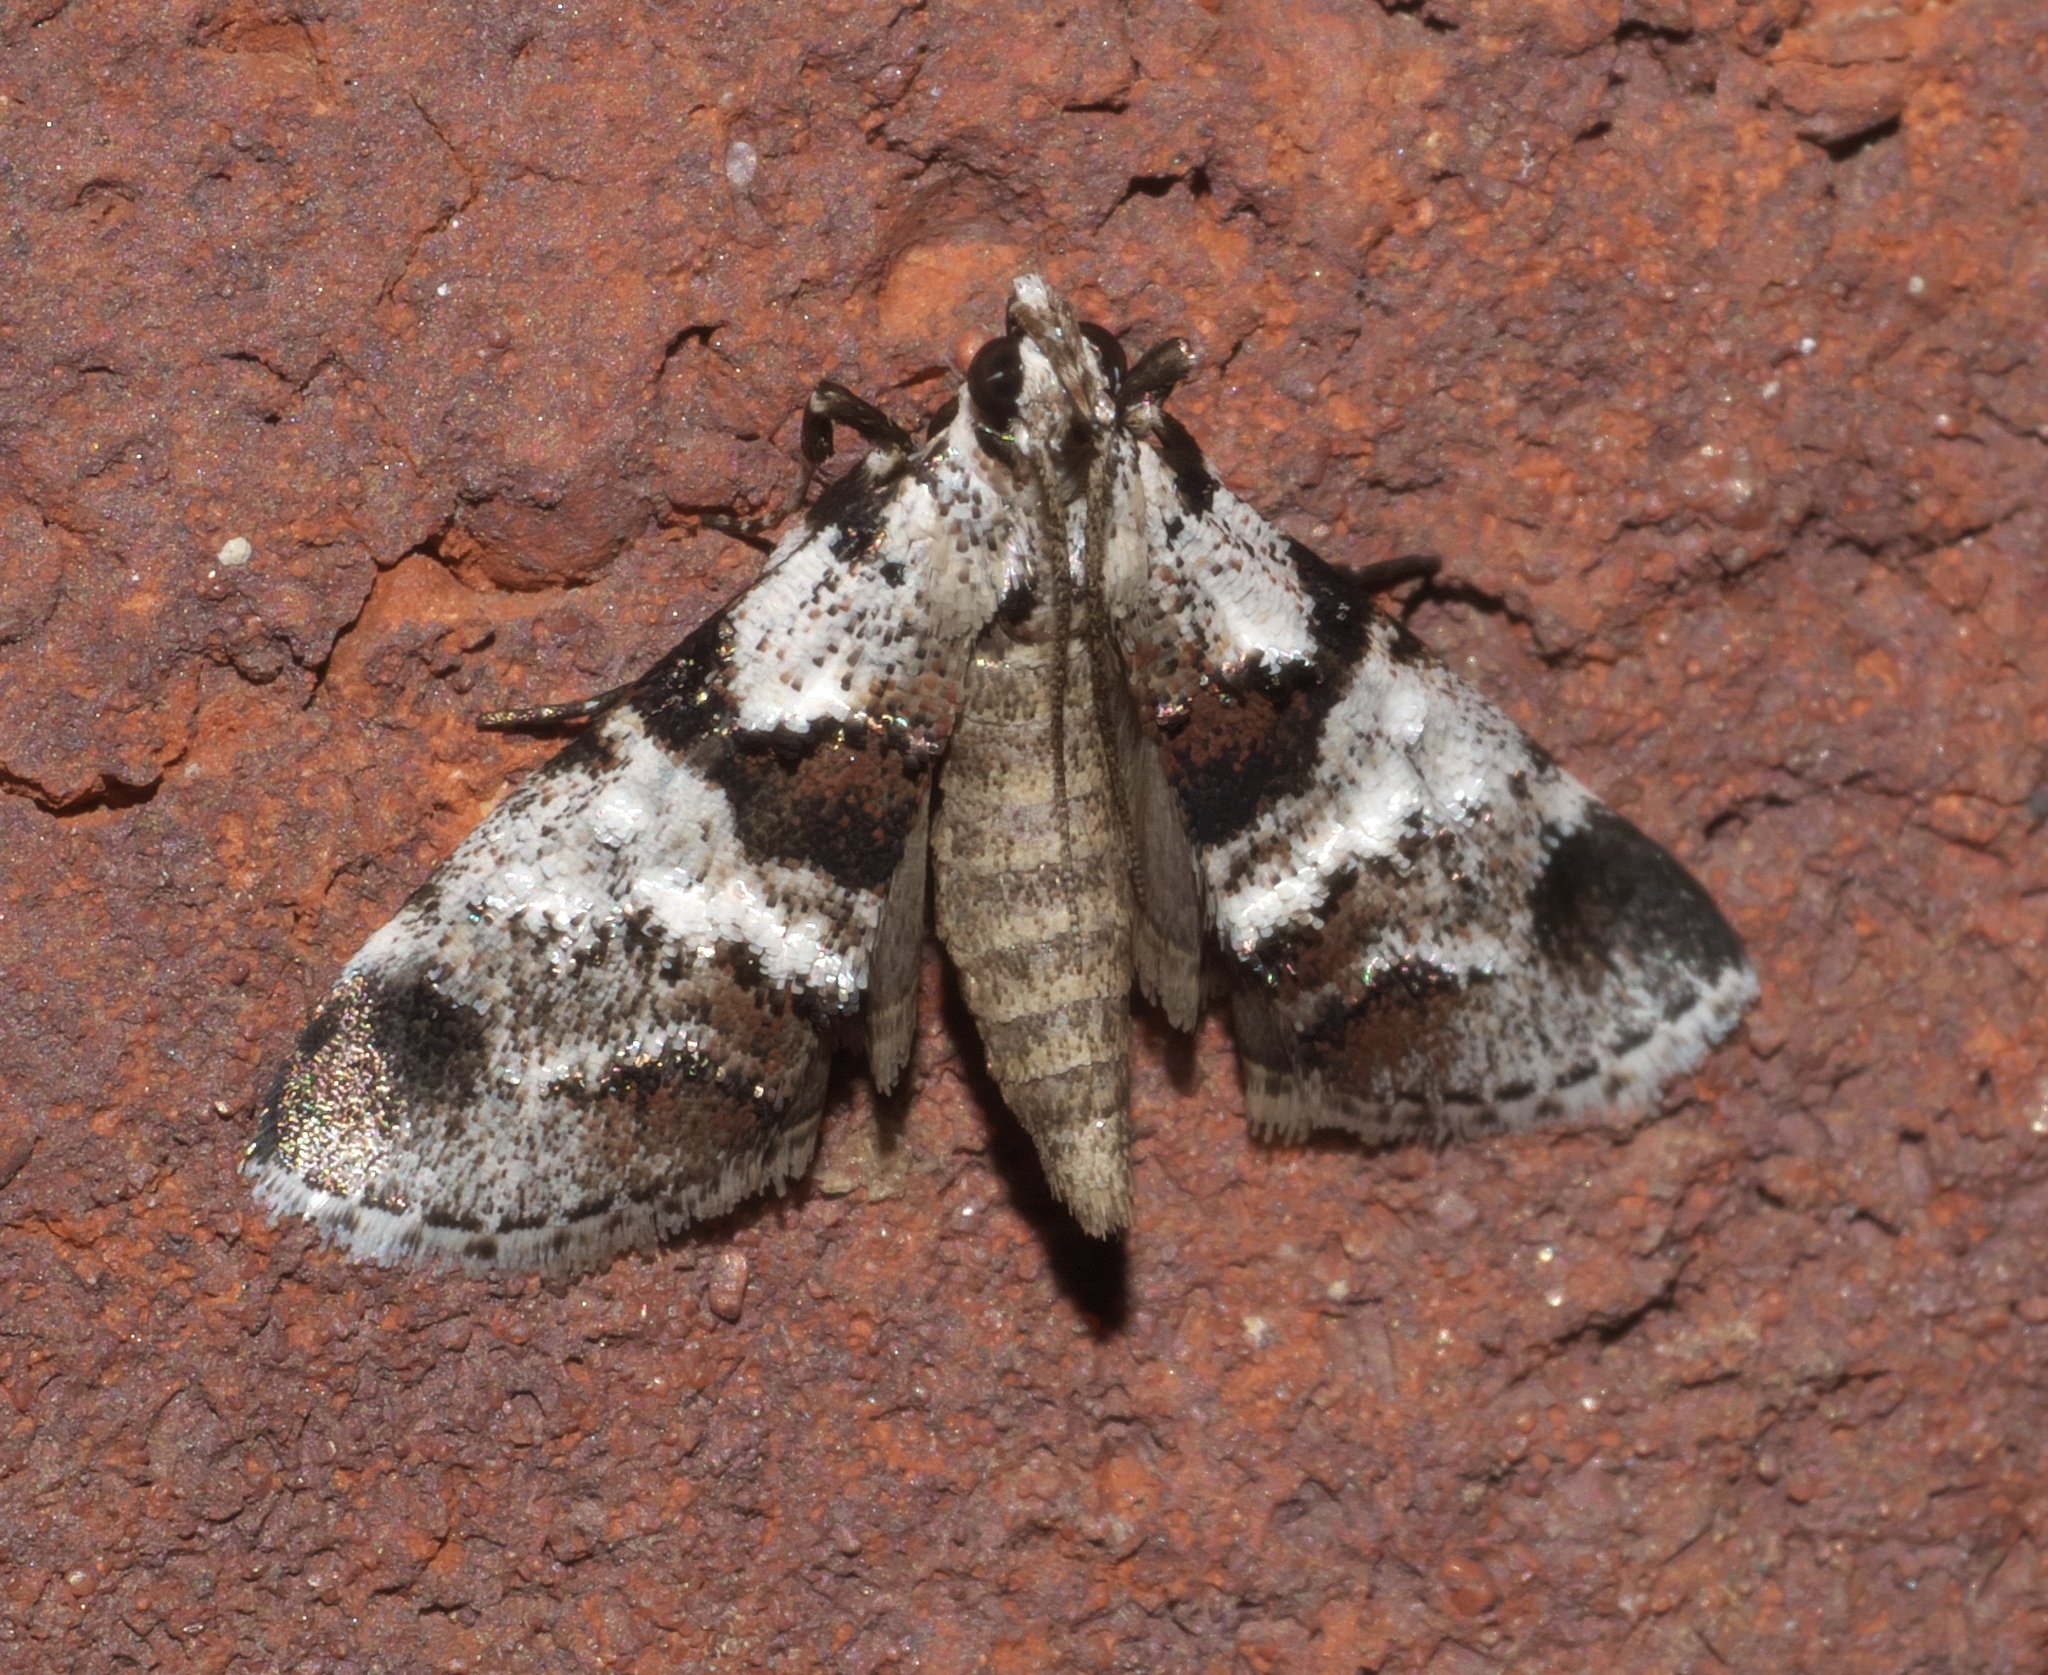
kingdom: Animalia
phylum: Arthropoda
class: Insecta
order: Lepidoptera
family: Pyralidae
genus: Tallula
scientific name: Tallula atrifascialis
